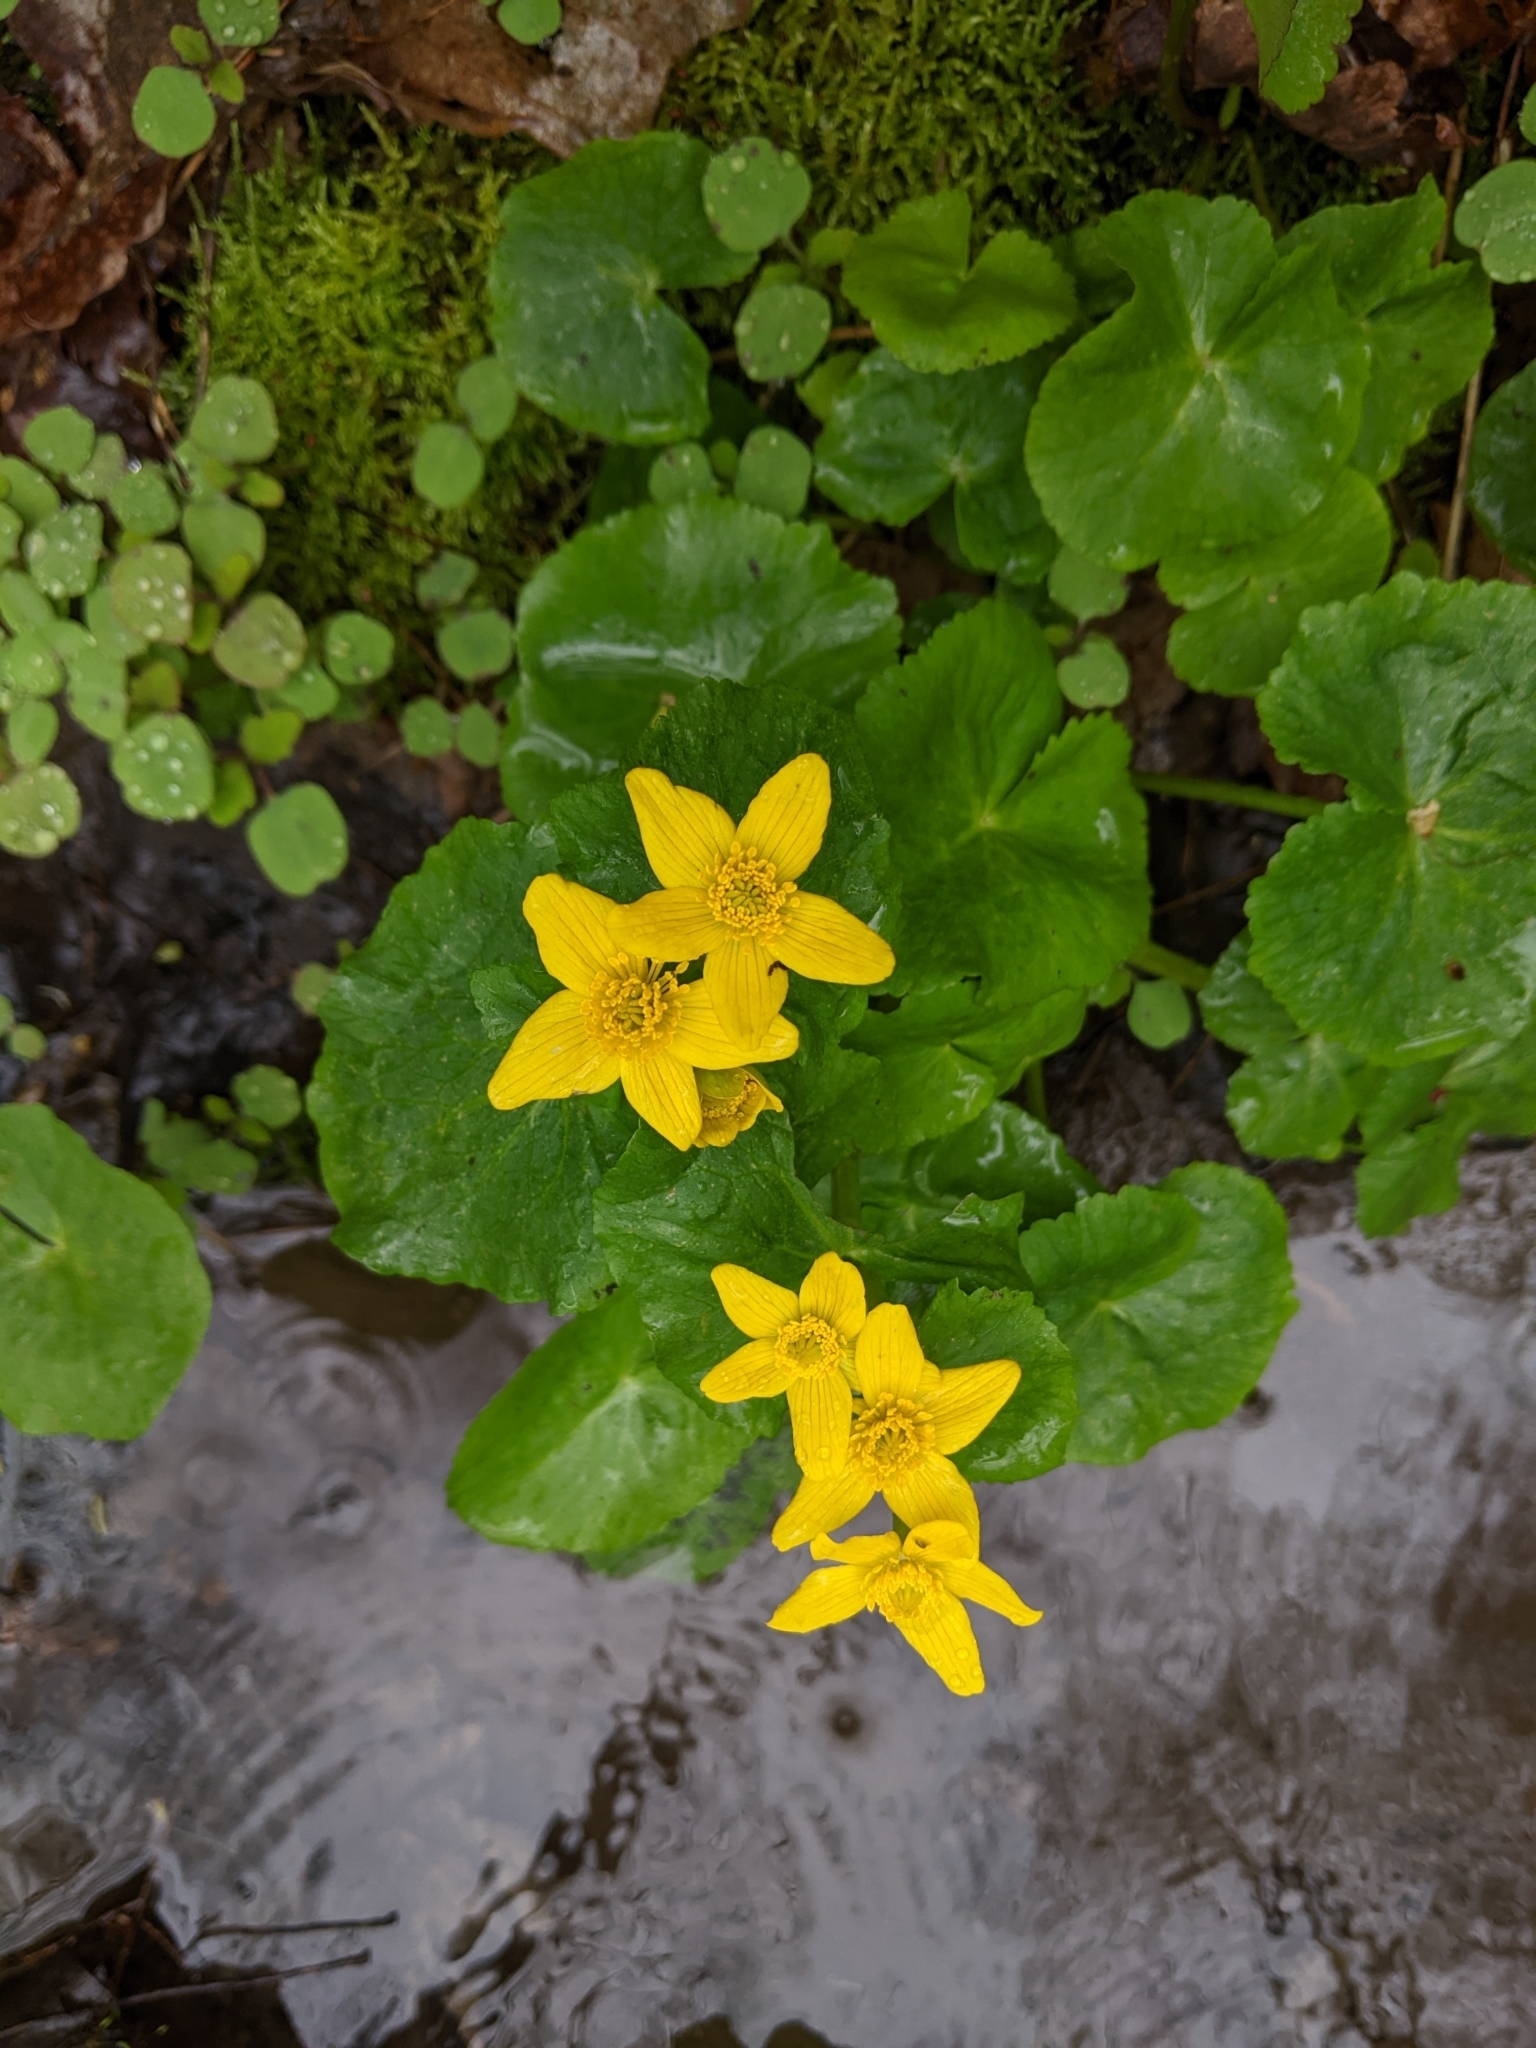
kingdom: Plantae
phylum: Tracheophyta
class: Magnoliopsida
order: Ranunculales
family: Ranunculaceae
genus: Caltha
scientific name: Caltha palustris
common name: Marsh marigold
